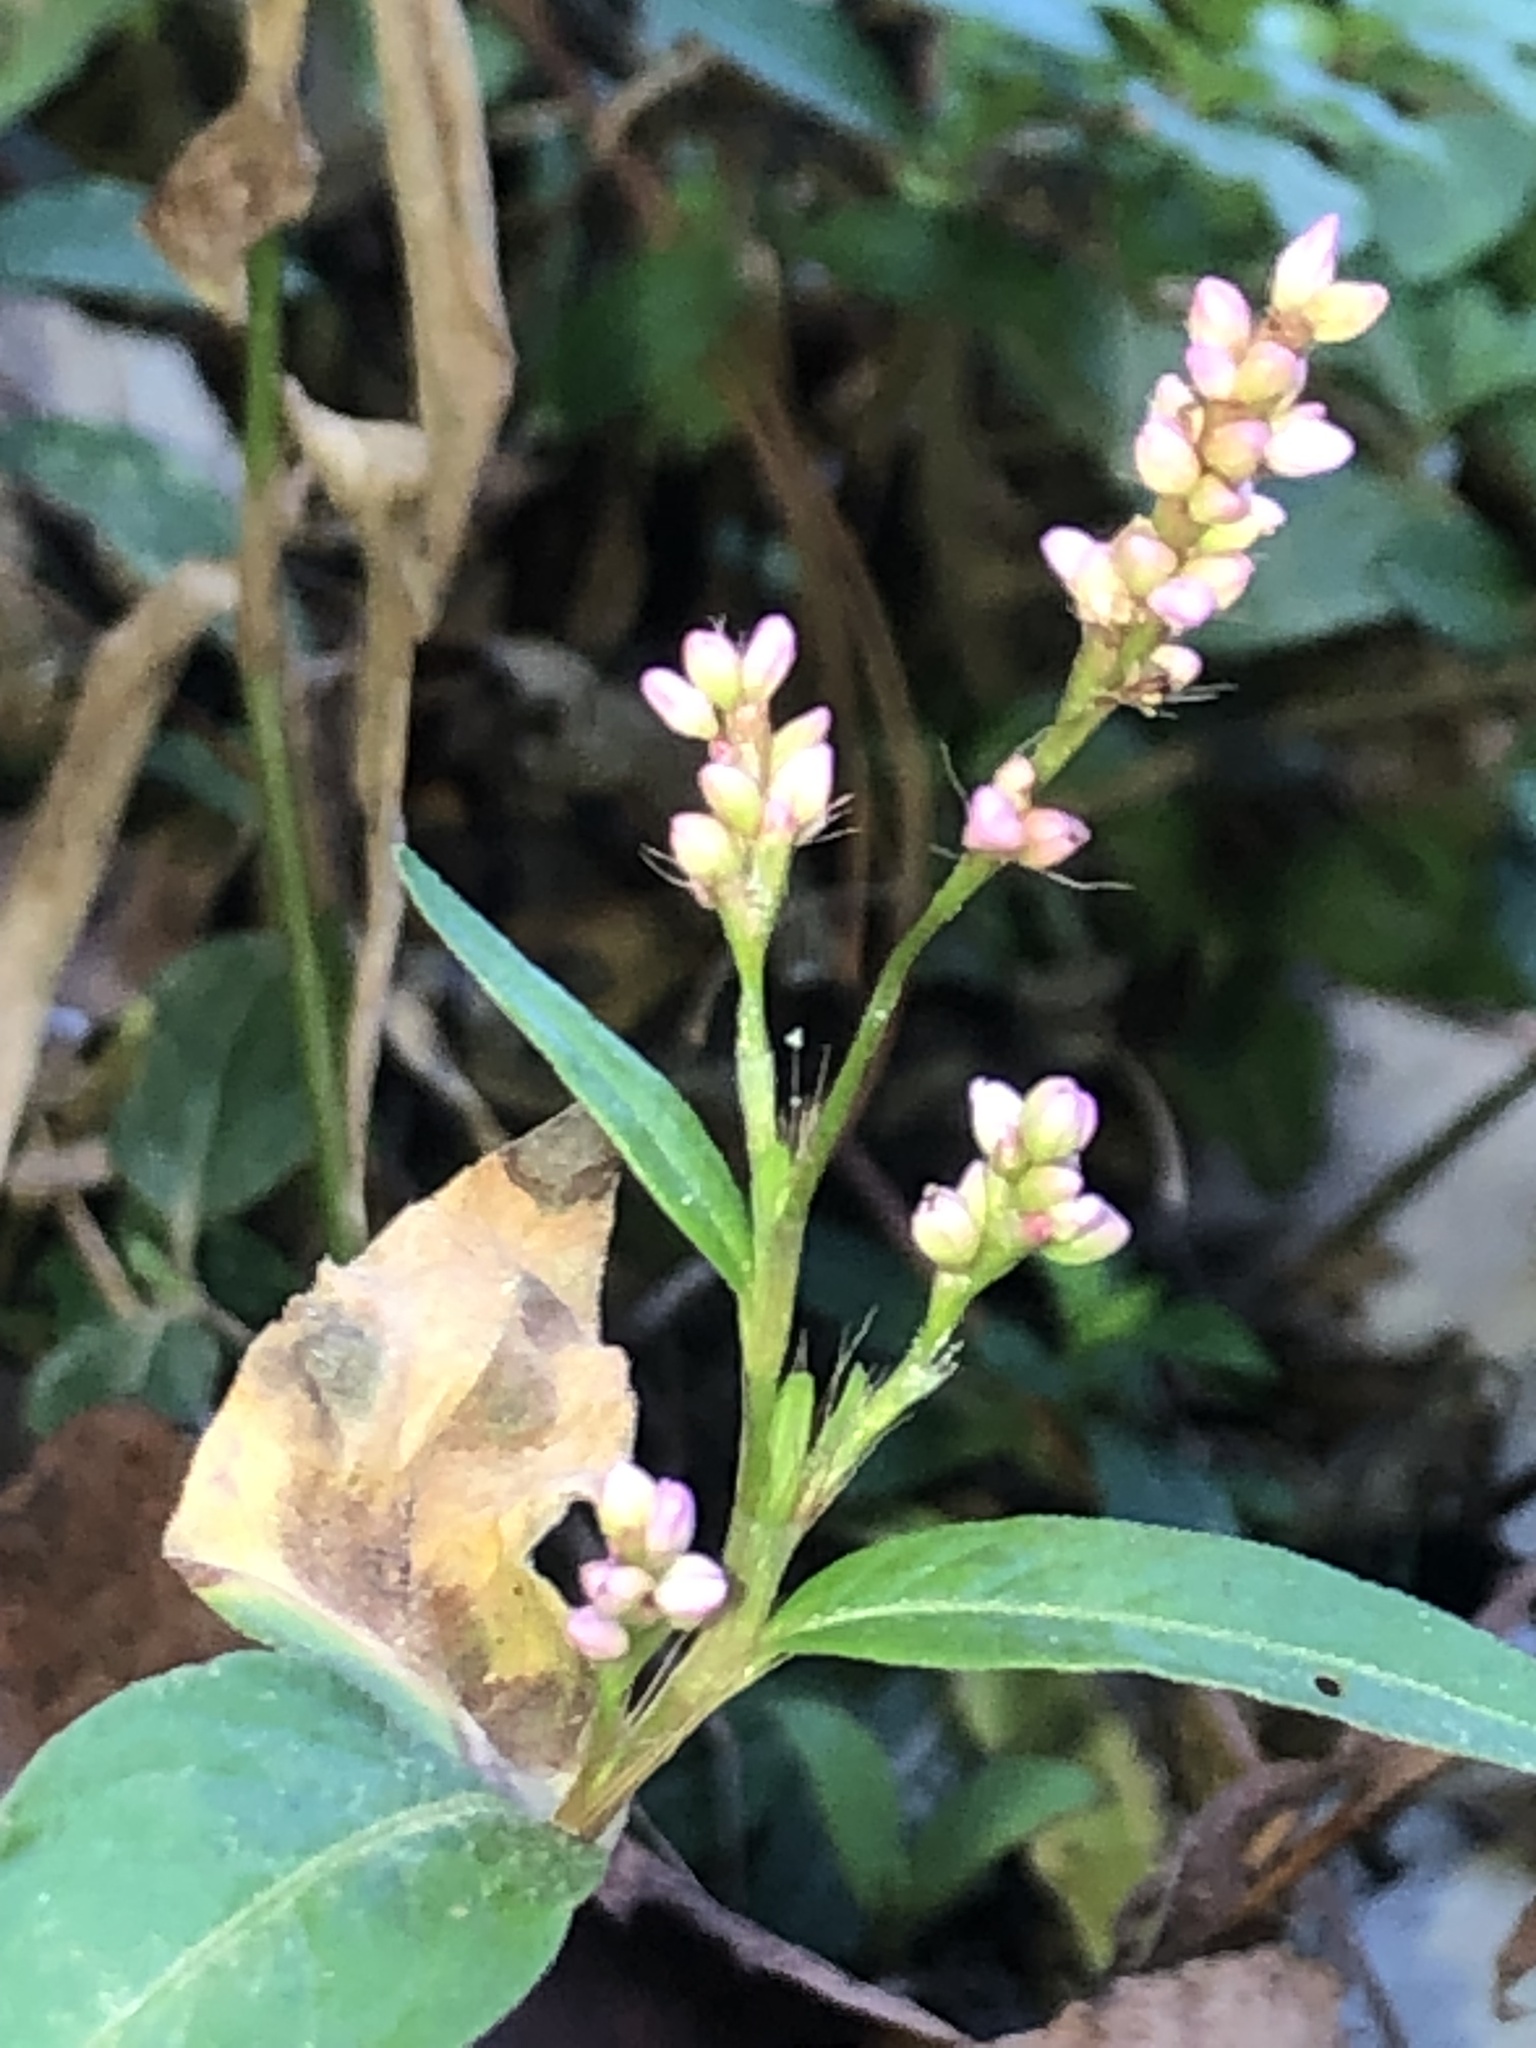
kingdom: Plantae
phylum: Tracheophyta
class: Magnoliopsida
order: Caryophyllales
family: Polygonaceae
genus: Persicaria
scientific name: Persicaria longiseta
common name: Bristly lady's-thumb
